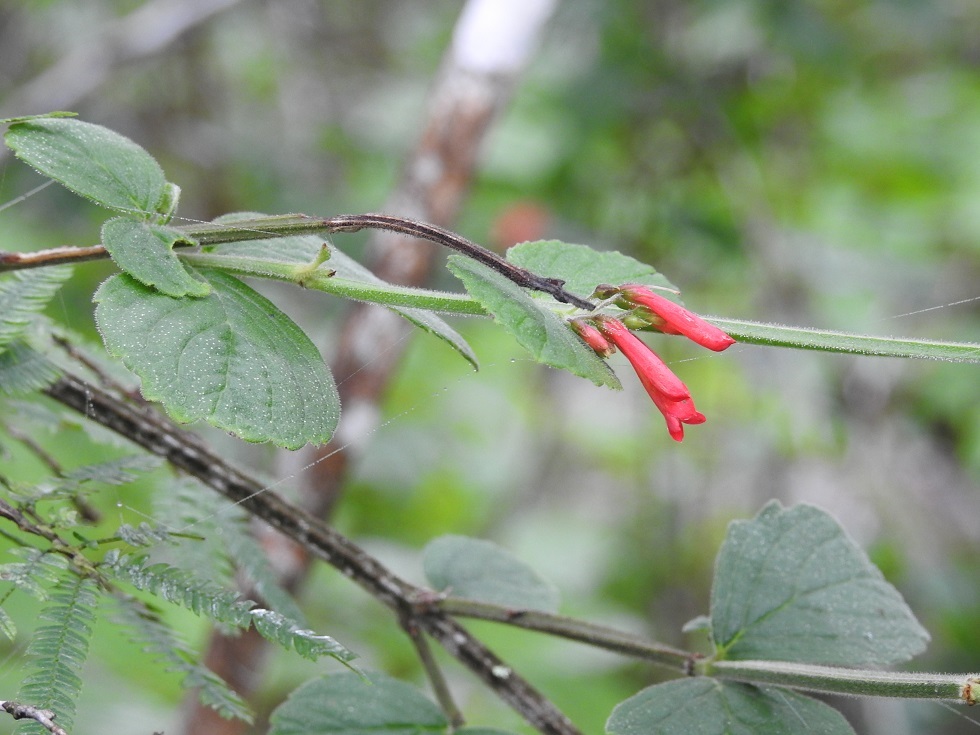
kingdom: Plantae
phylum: Tracheophyta
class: Magnoliopsida
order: Lamiales
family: Plantaginaceae
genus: Russelia
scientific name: Russelia sarmentosa
